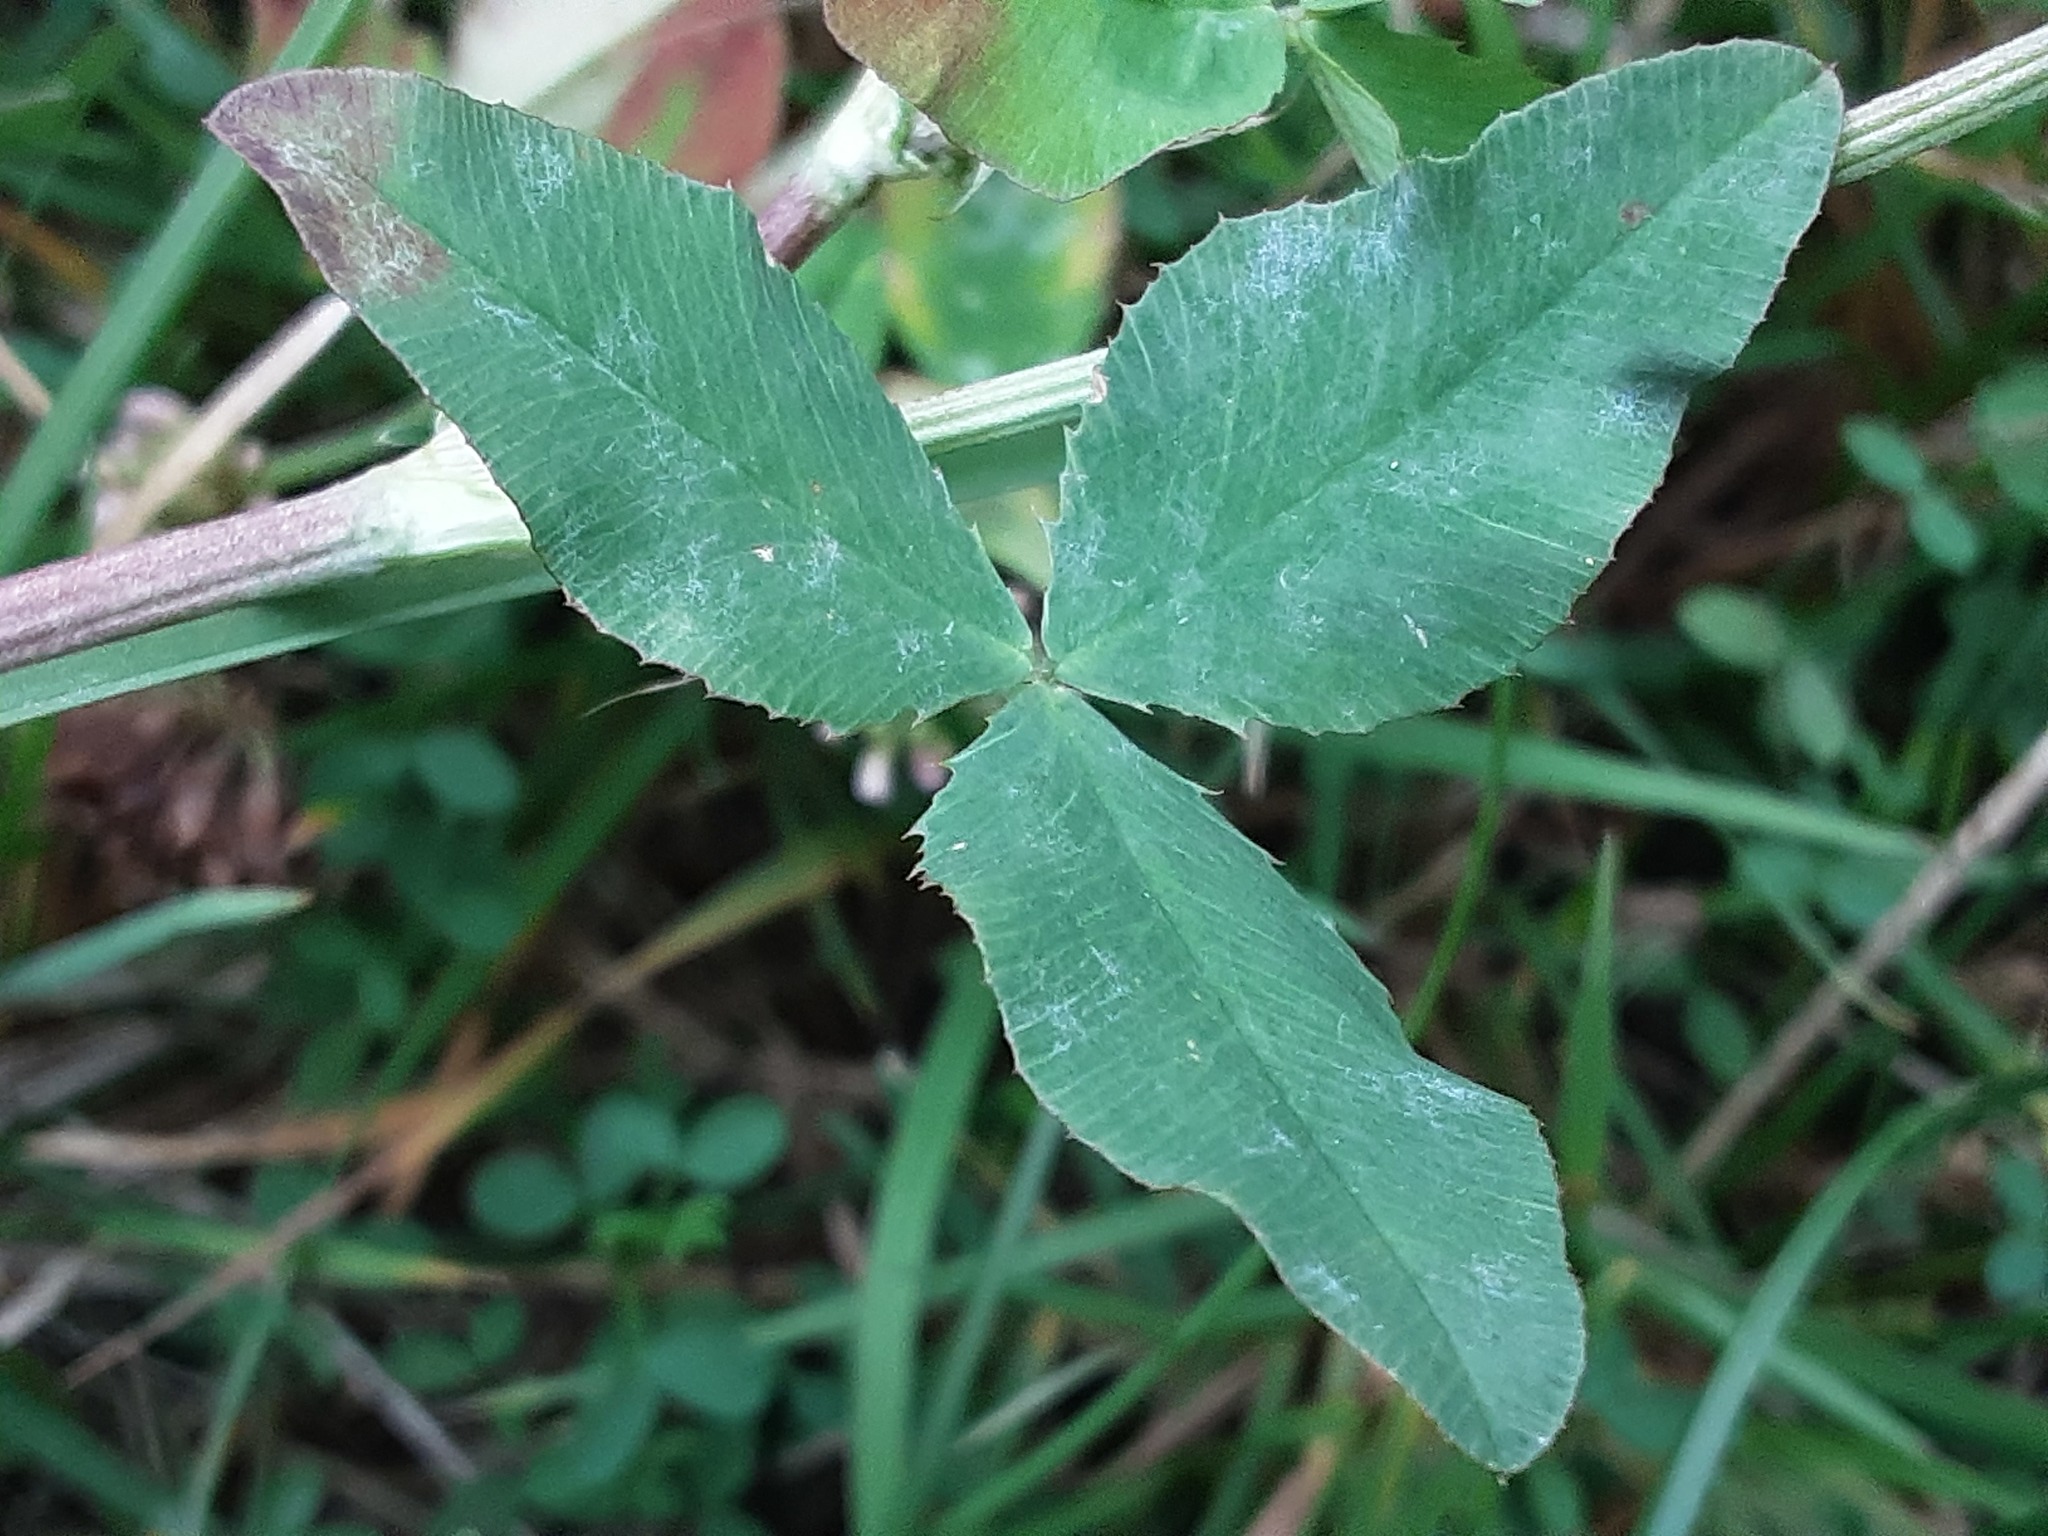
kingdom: Plantae
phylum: Tracheophyta
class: Magnoliopsida
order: Fabales
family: Fabaceae
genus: Trifolium
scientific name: Trifolium hybridum
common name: Alsike clover
